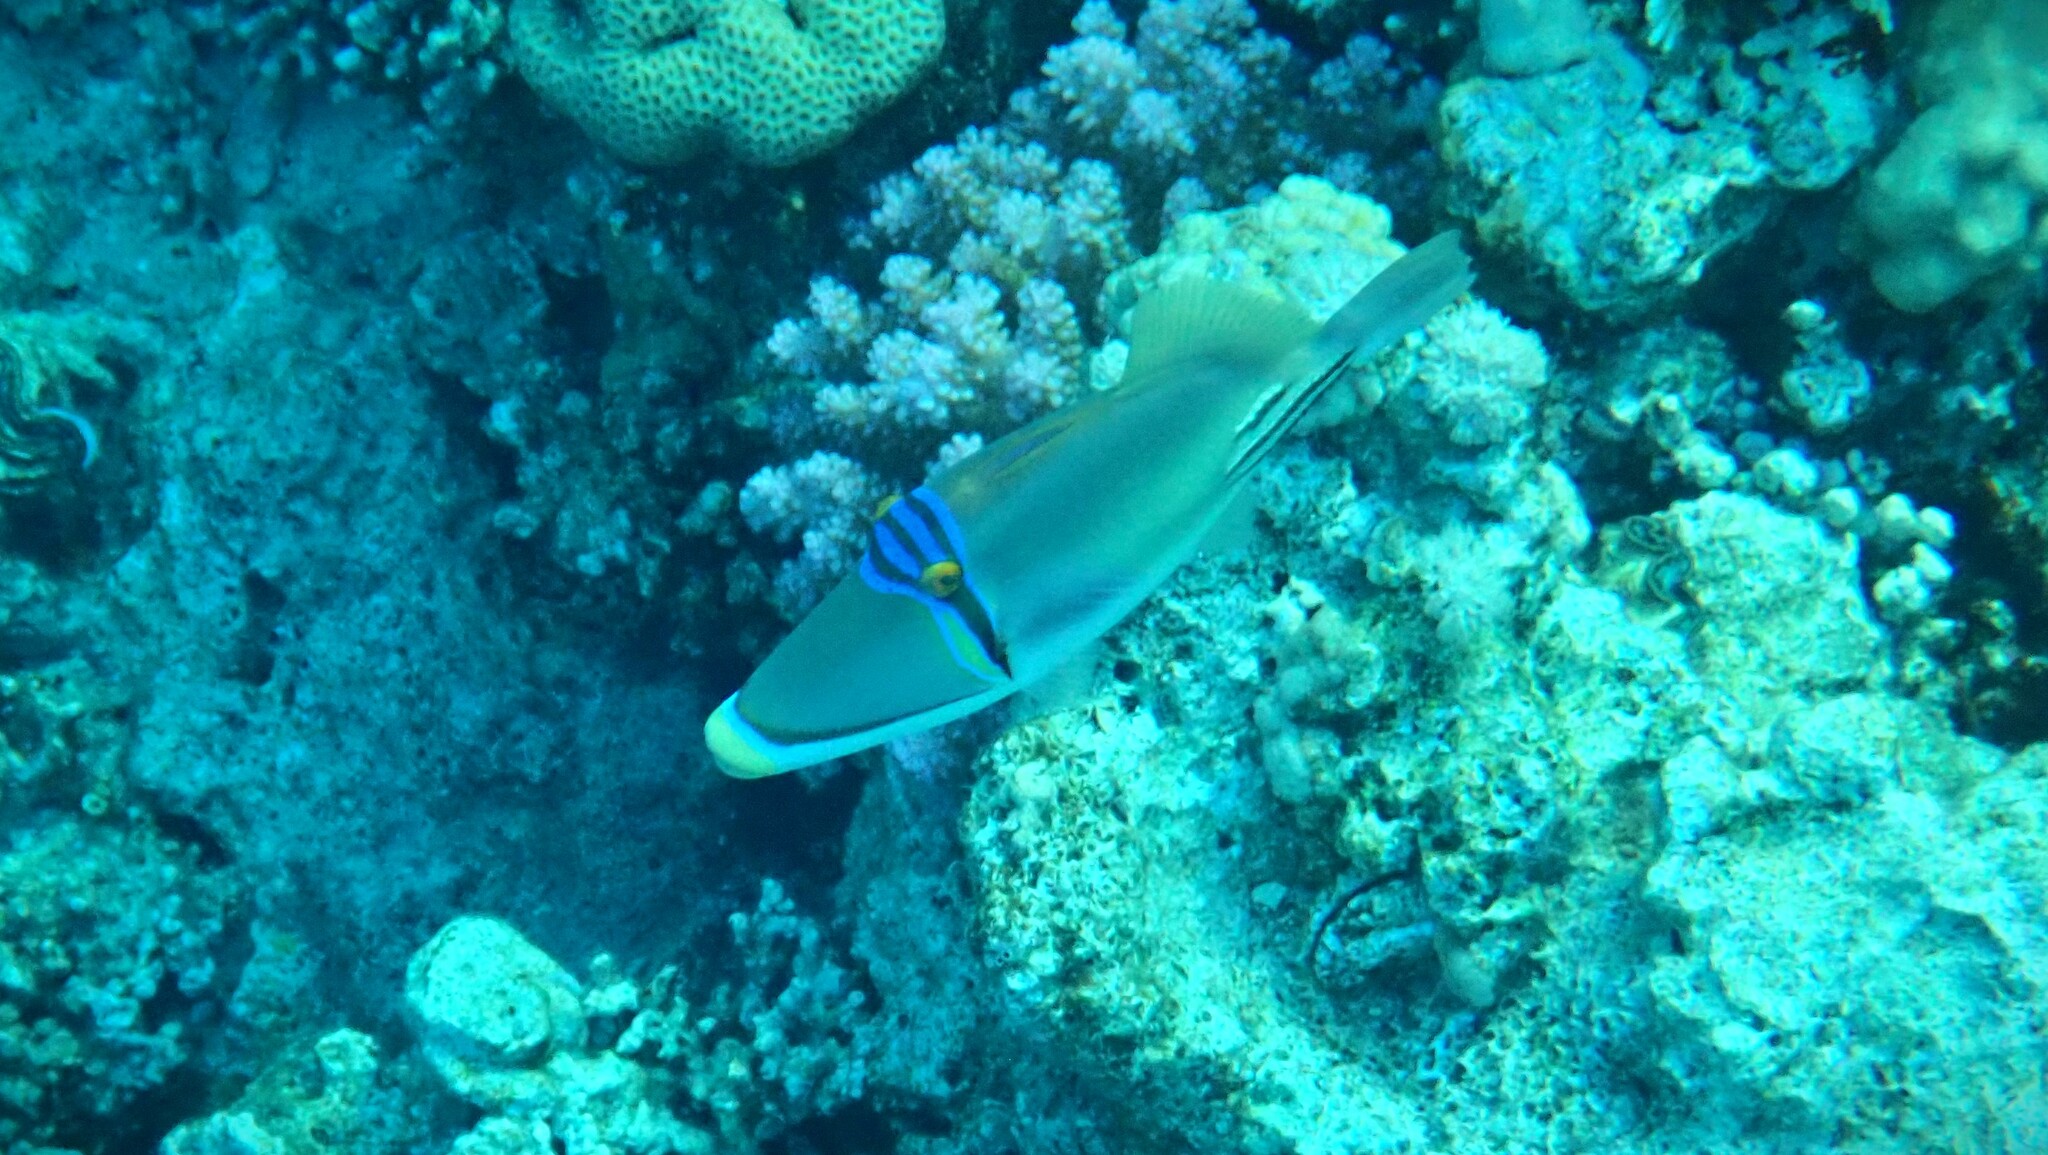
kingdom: Animalia
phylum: Chordata
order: Tetraodontiformes
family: Balistidae
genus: Rhinecanthus
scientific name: Rhinecanthus assasi
